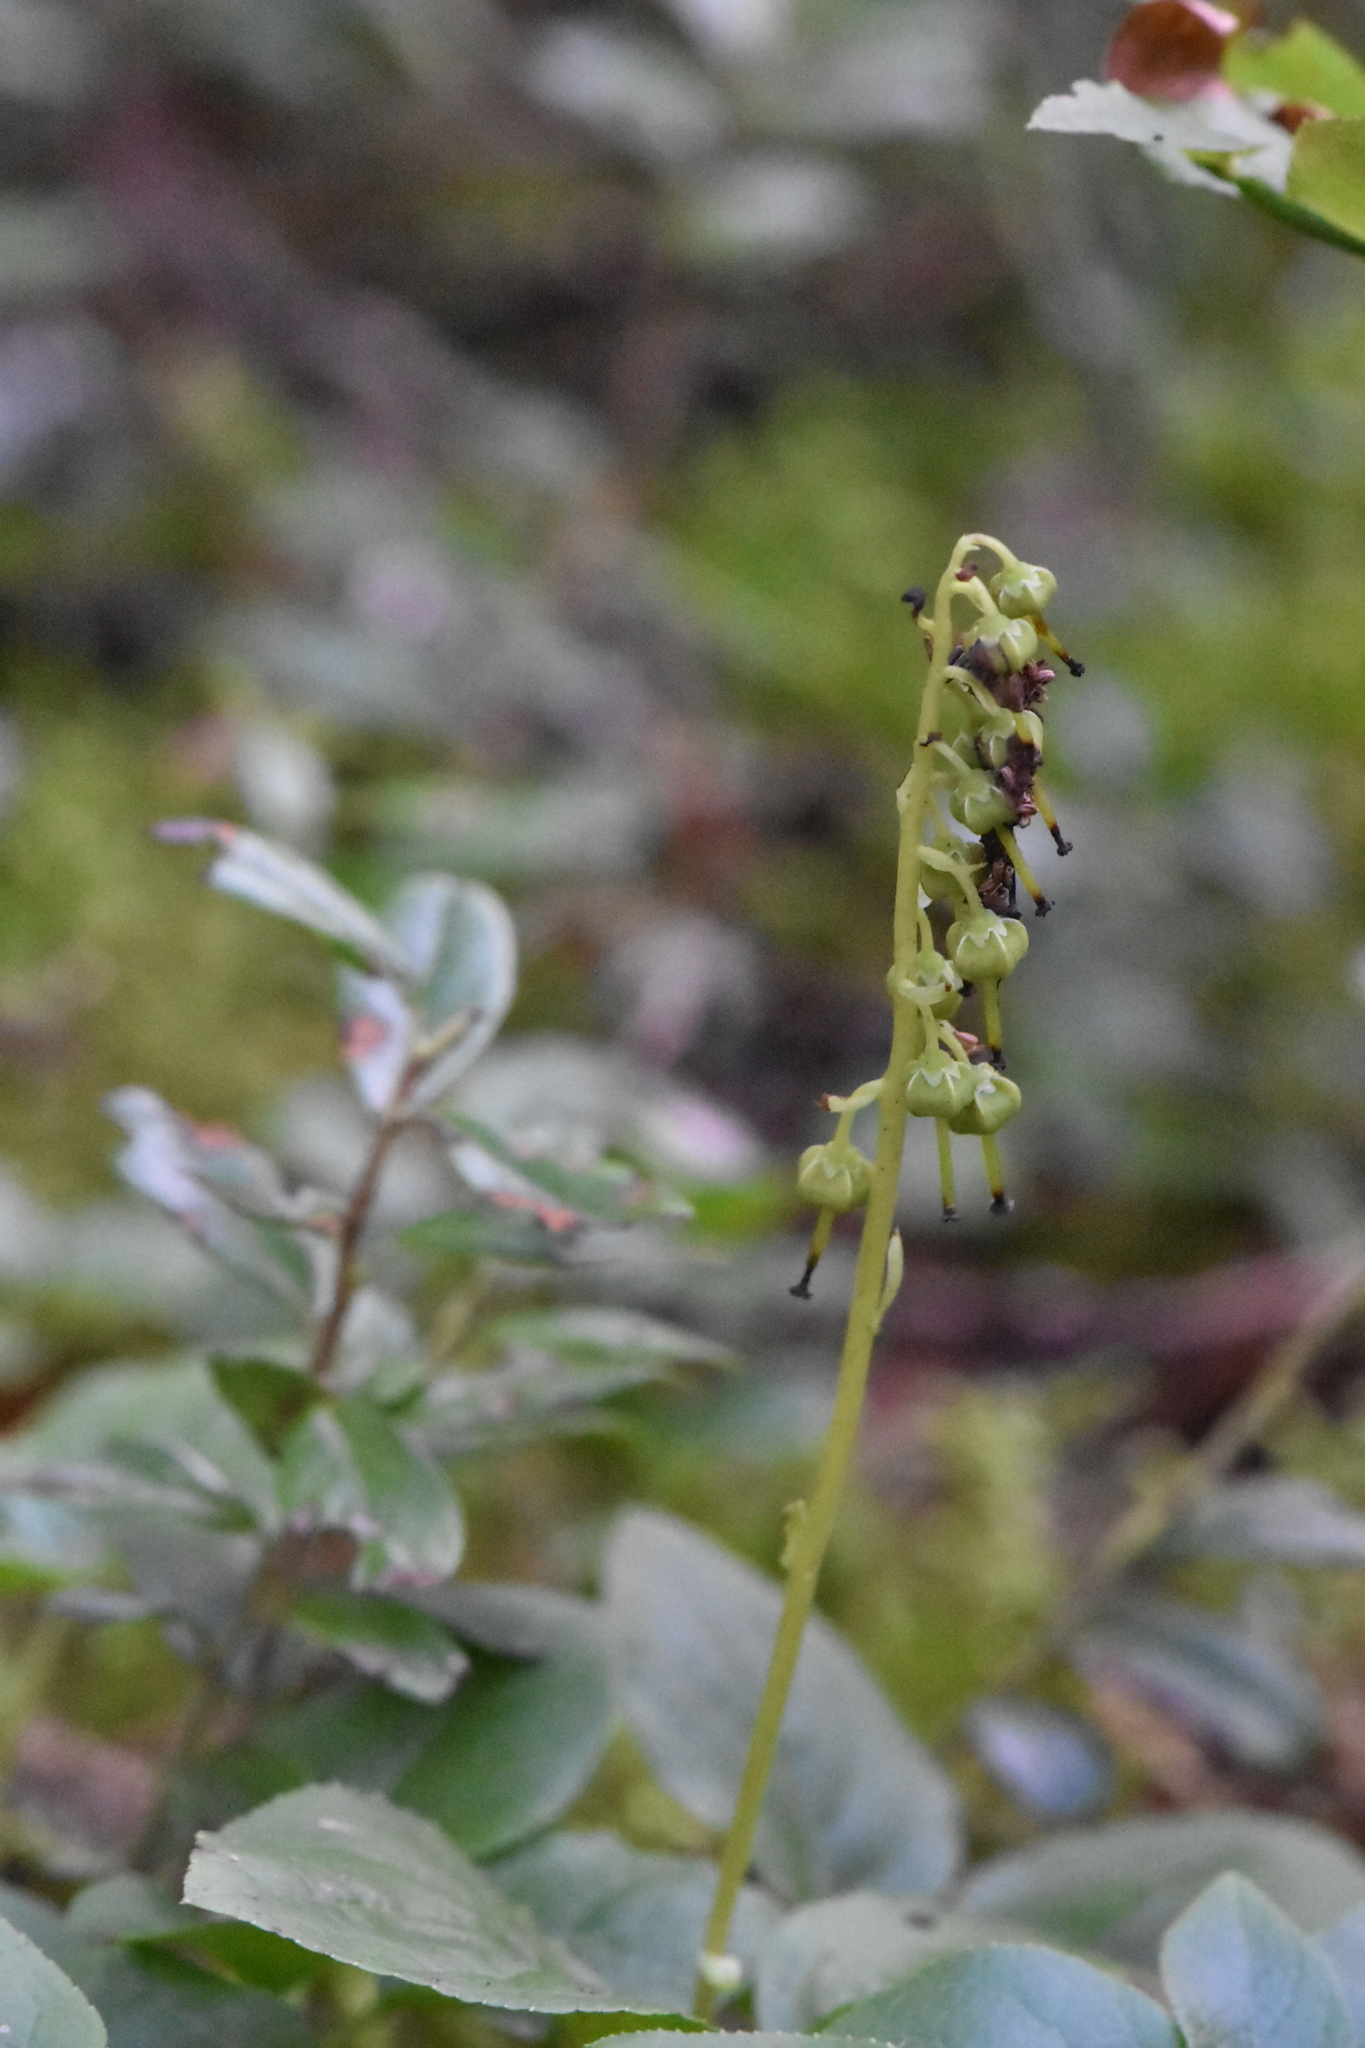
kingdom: Plantae
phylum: Tracheophyta
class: Magnoliopsida
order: Ericales
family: Ericaceae
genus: Orthilia
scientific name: Orthilia secunda
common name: One-sided orthilia
